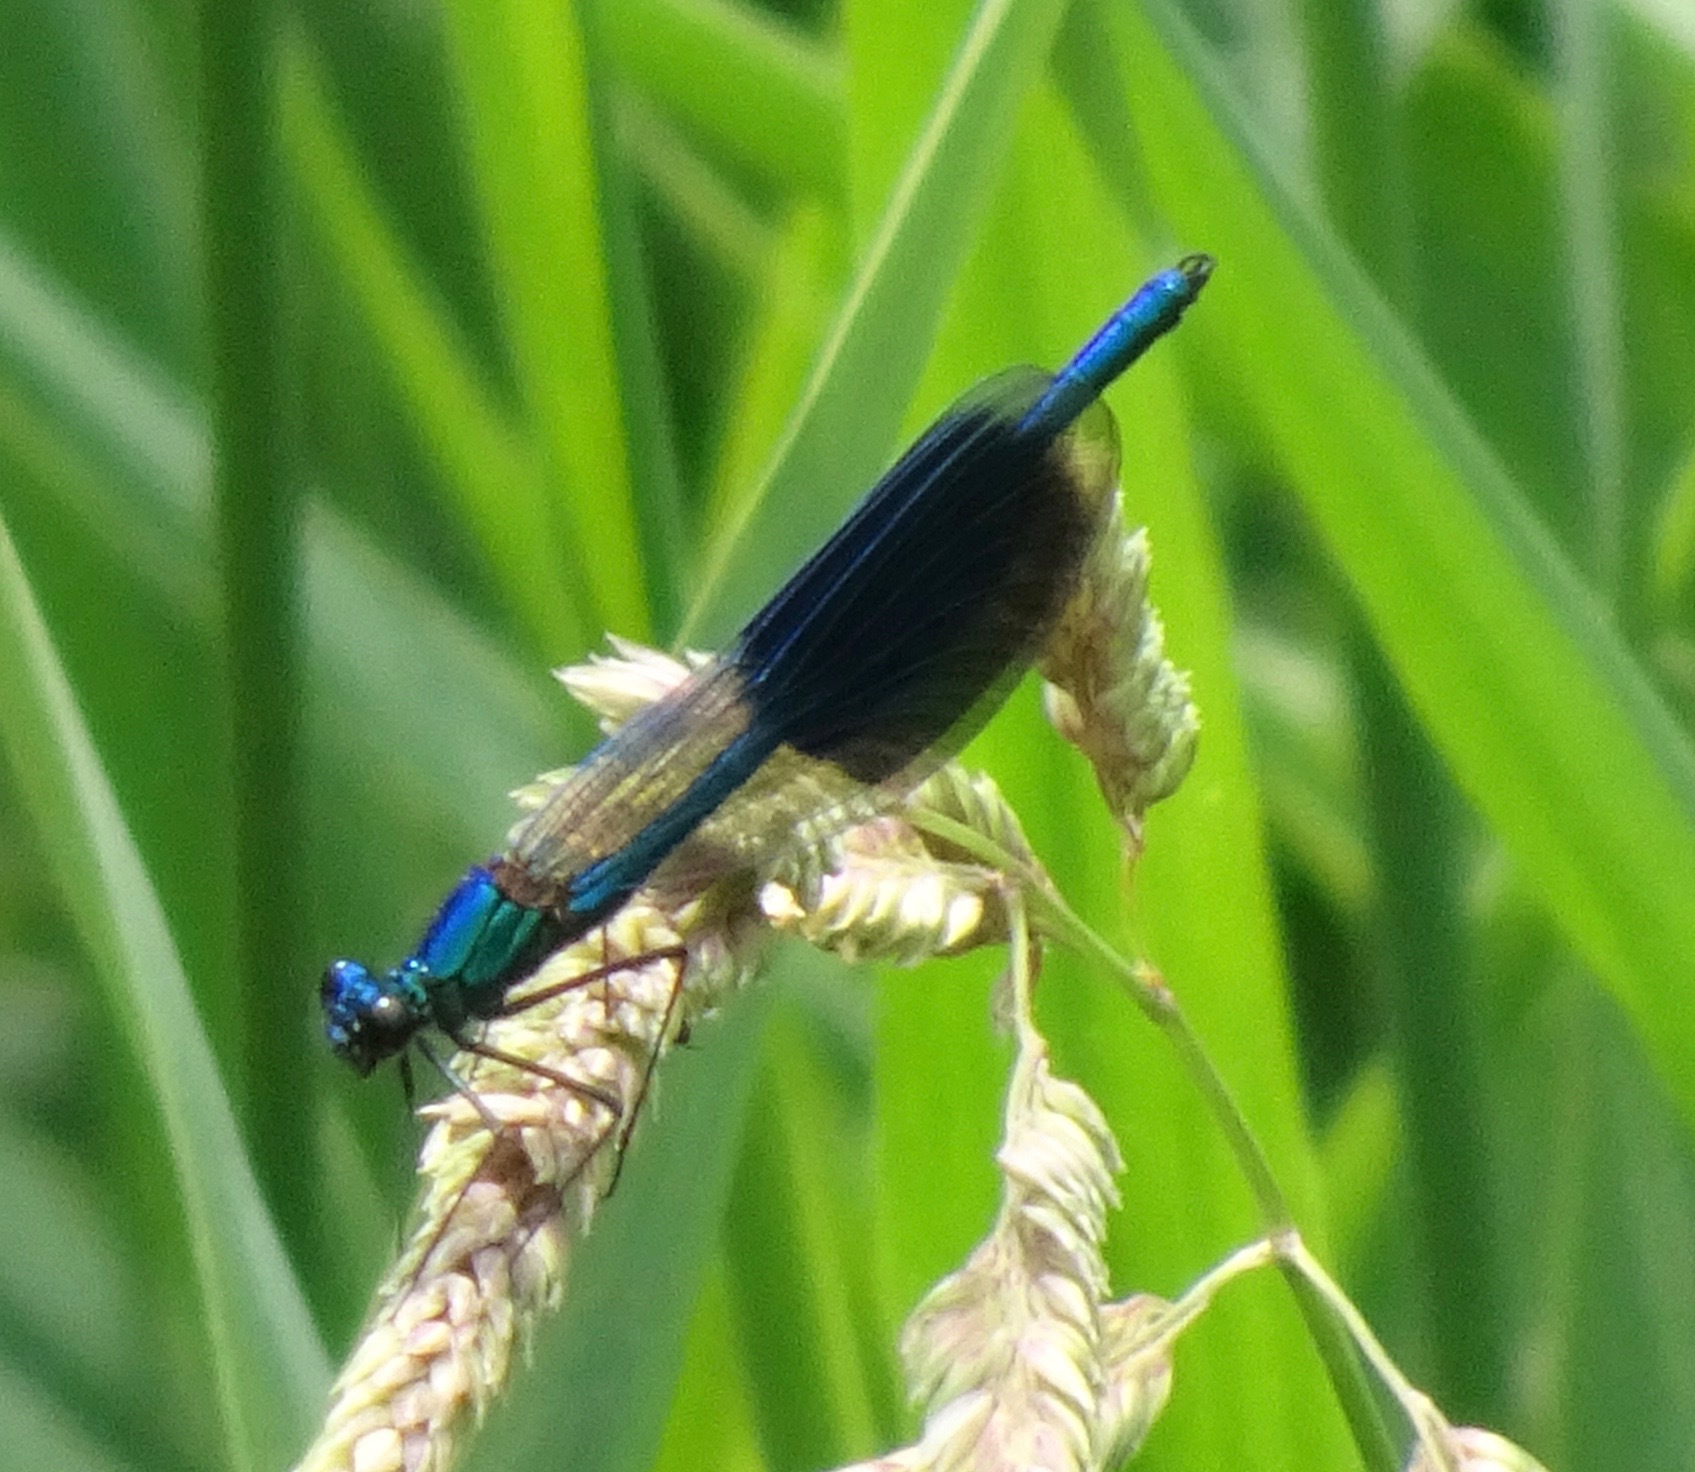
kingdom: Animalia
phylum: Arthropoda
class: Insecta
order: Odonata
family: Calopterygidae
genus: Calopteryx
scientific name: Calopteryx splendens
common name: Banded demoiselle
